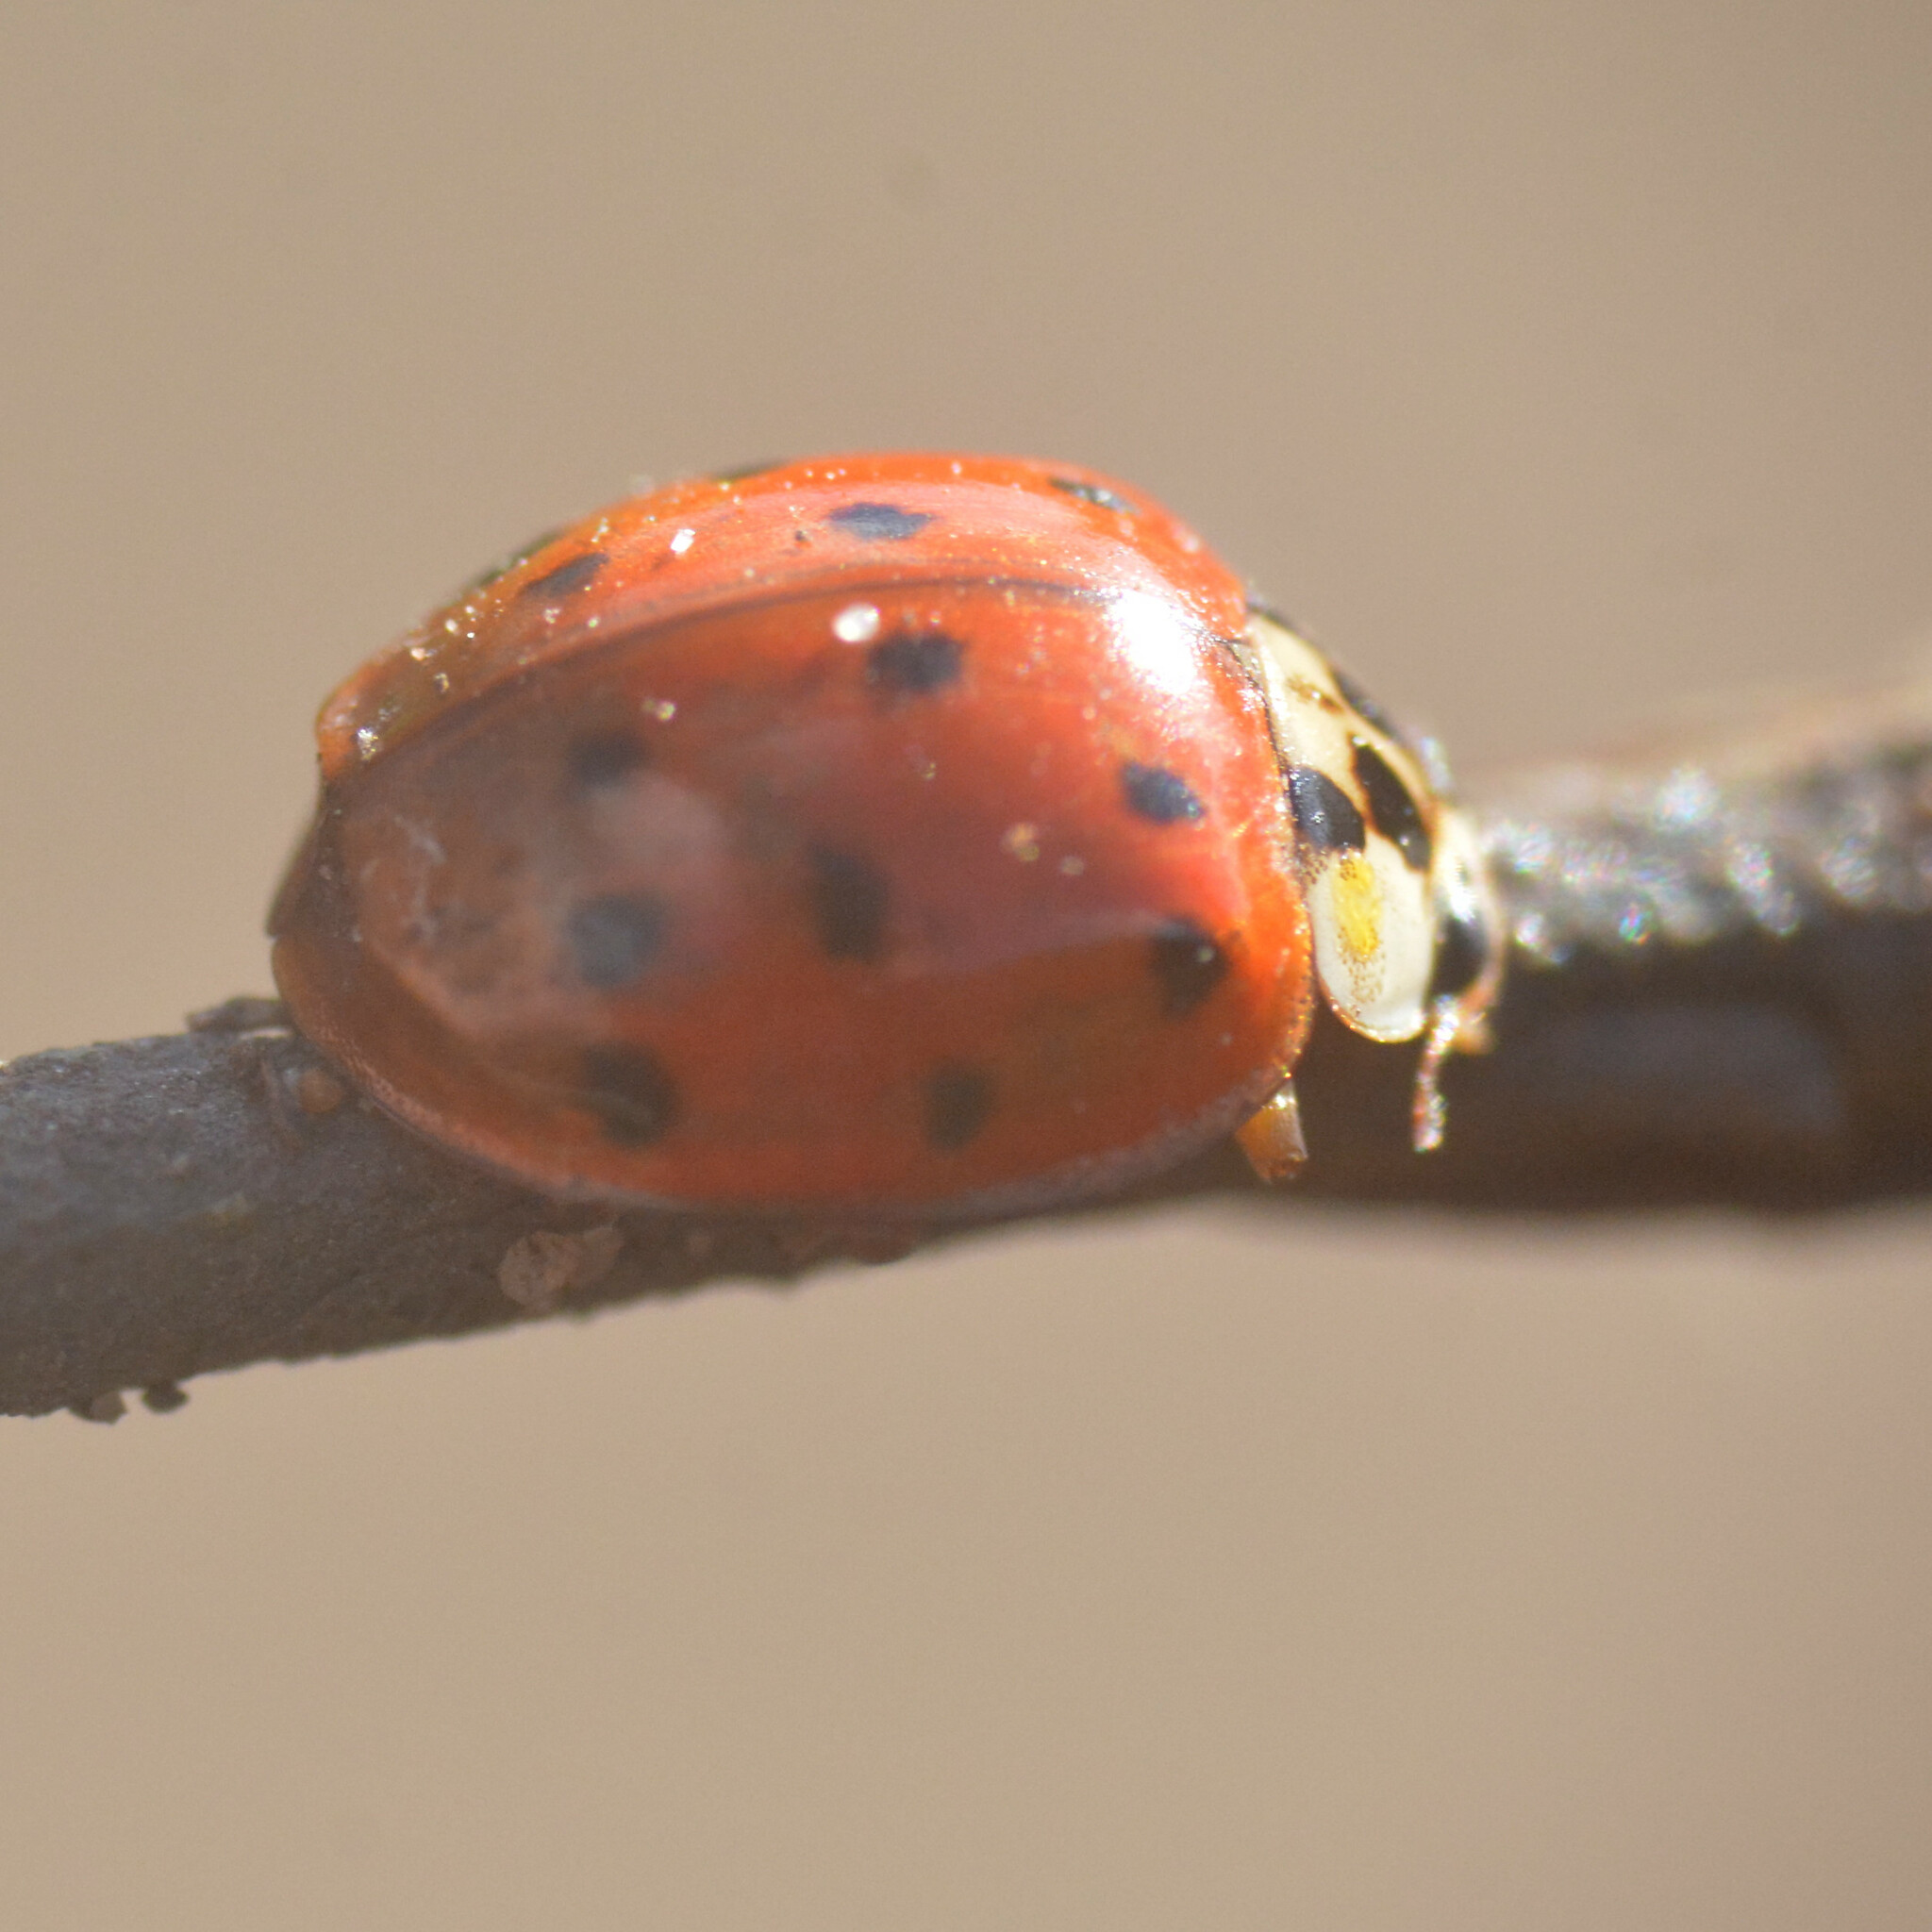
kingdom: Animalia
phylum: Arthropoda
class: Insecta
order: Coleoptera
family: Coccinellidae
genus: Harmonia
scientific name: Harmonia axyridis
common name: Harlequin ladybird
